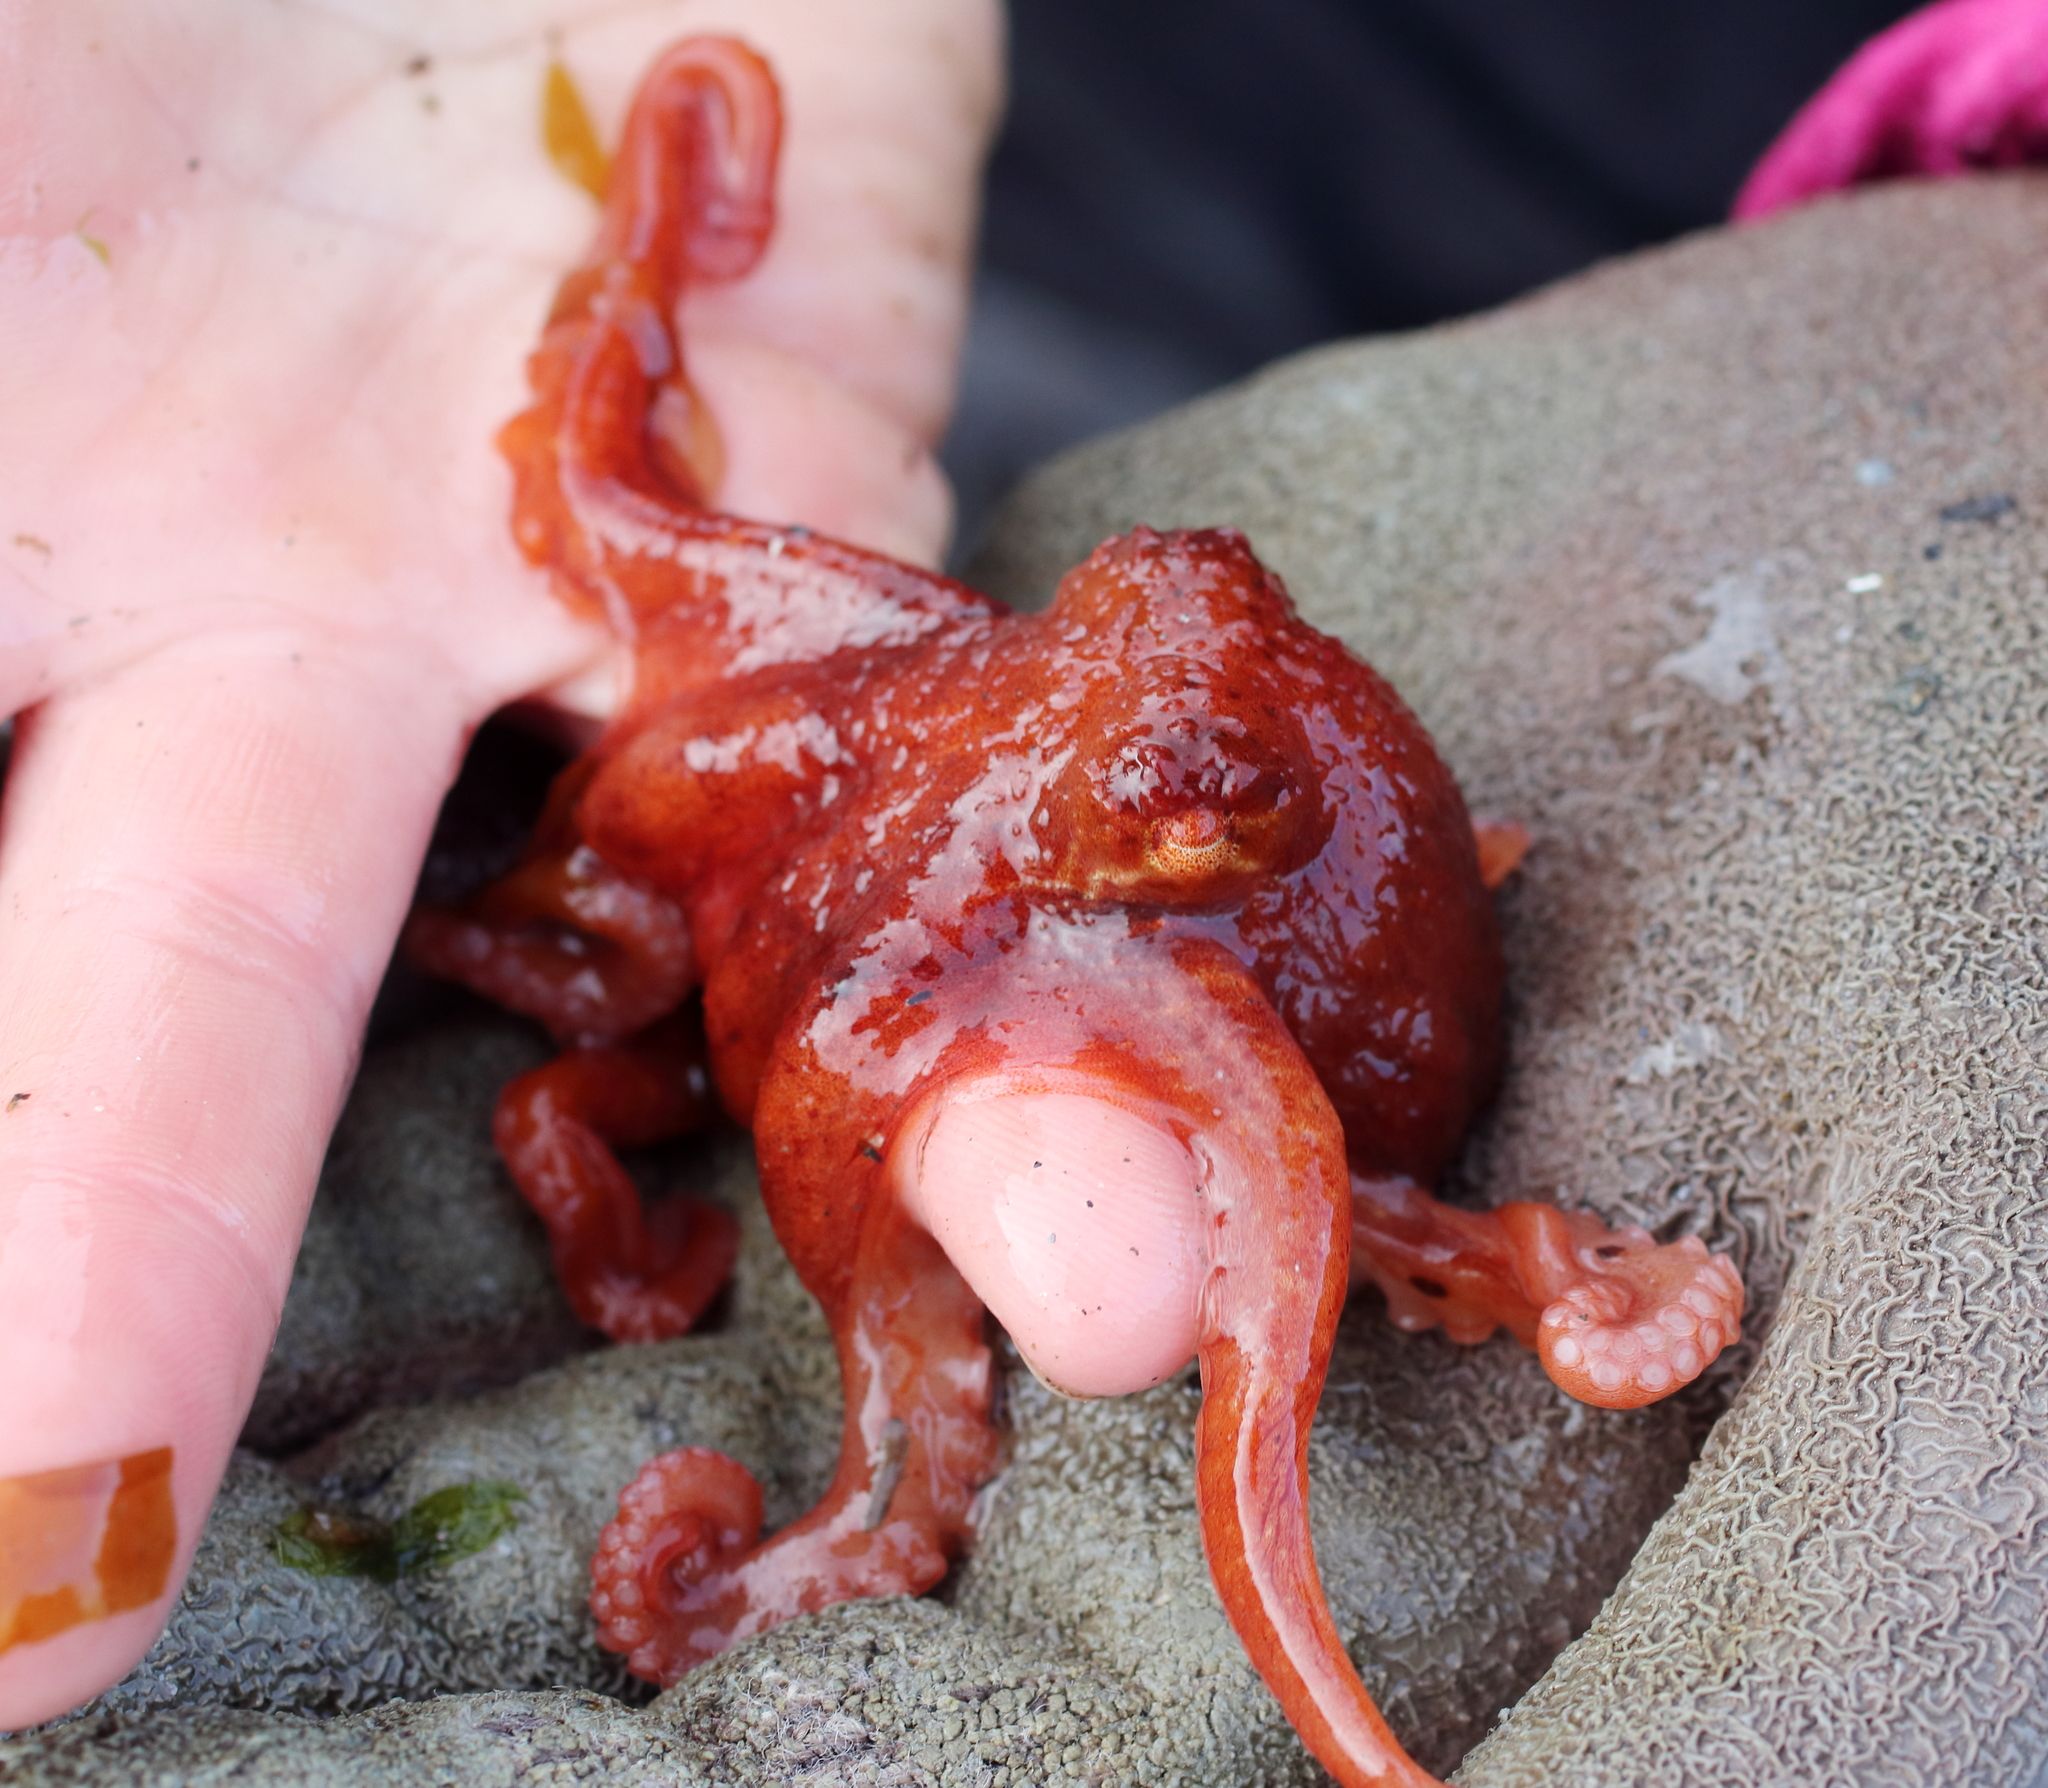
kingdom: Animalia
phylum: Mollusca
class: Cephalopoda
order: Octopoda
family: Enteroctopodidae
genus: Enteroctopus
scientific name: Enteroctopus dofleini
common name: Giant north pacific octopus
